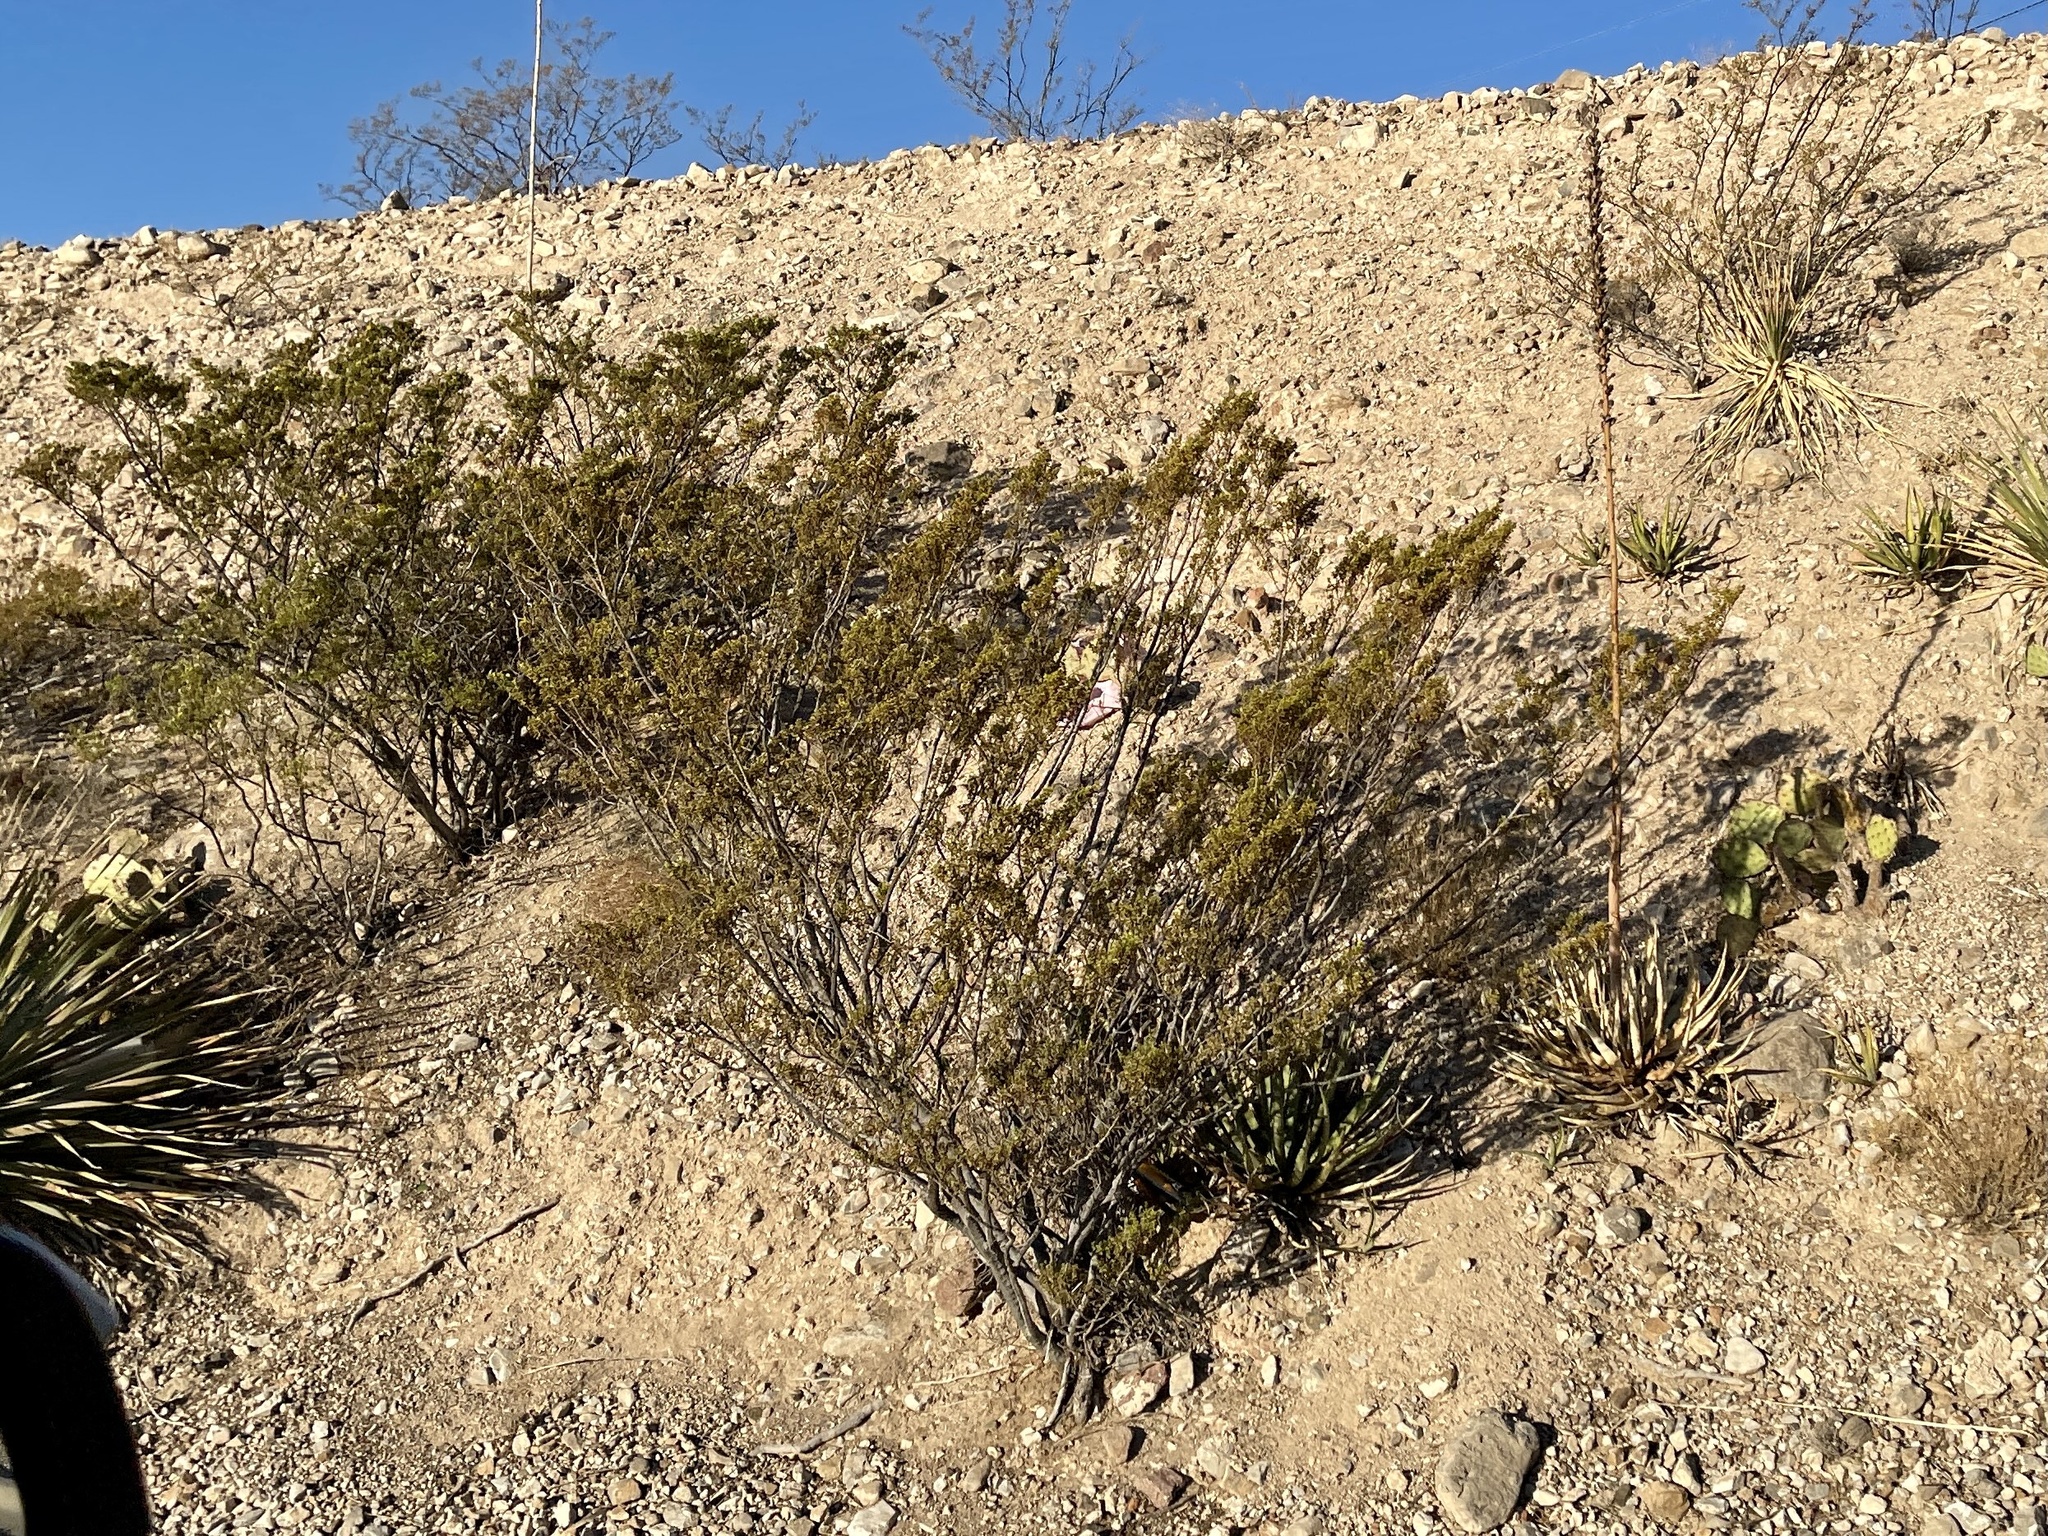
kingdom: Plantae
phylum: Tracheophyta
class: Magnoliopsida
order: Zygophyllales
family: Zygophyllaceae
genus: Larrea
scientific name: Larrea tridentata
